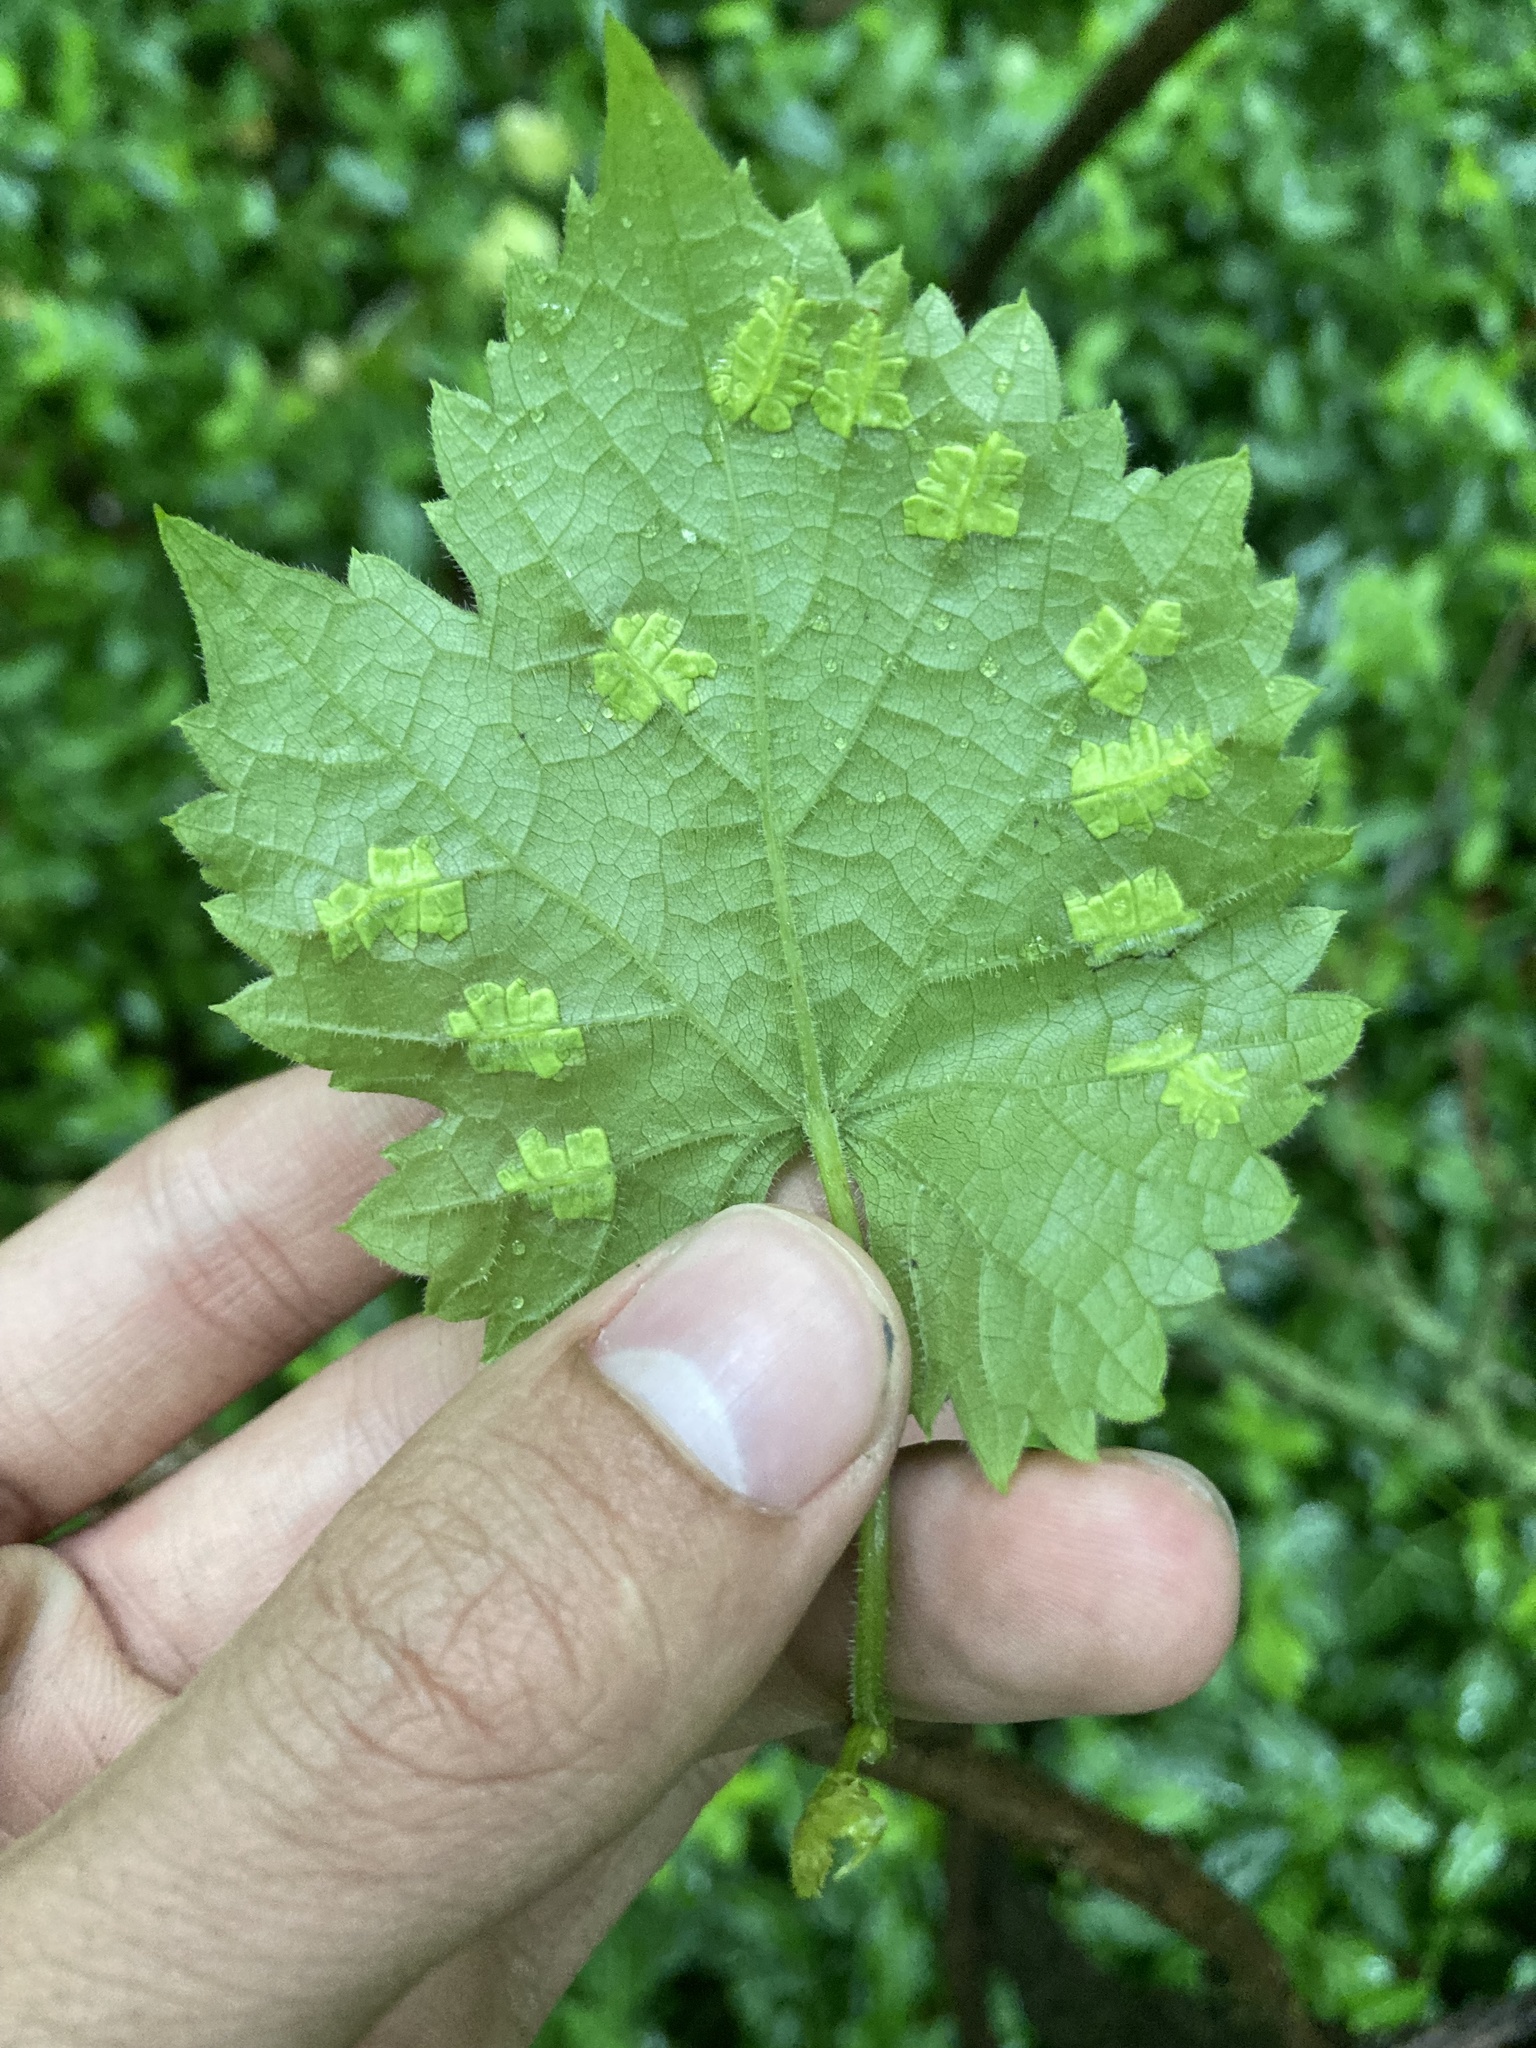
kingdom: Animalia
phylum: Arthropoda
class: Insecta
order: Lepidoptera
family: Heliozelidae
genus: Heliozela
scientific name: Heliozela aesella
